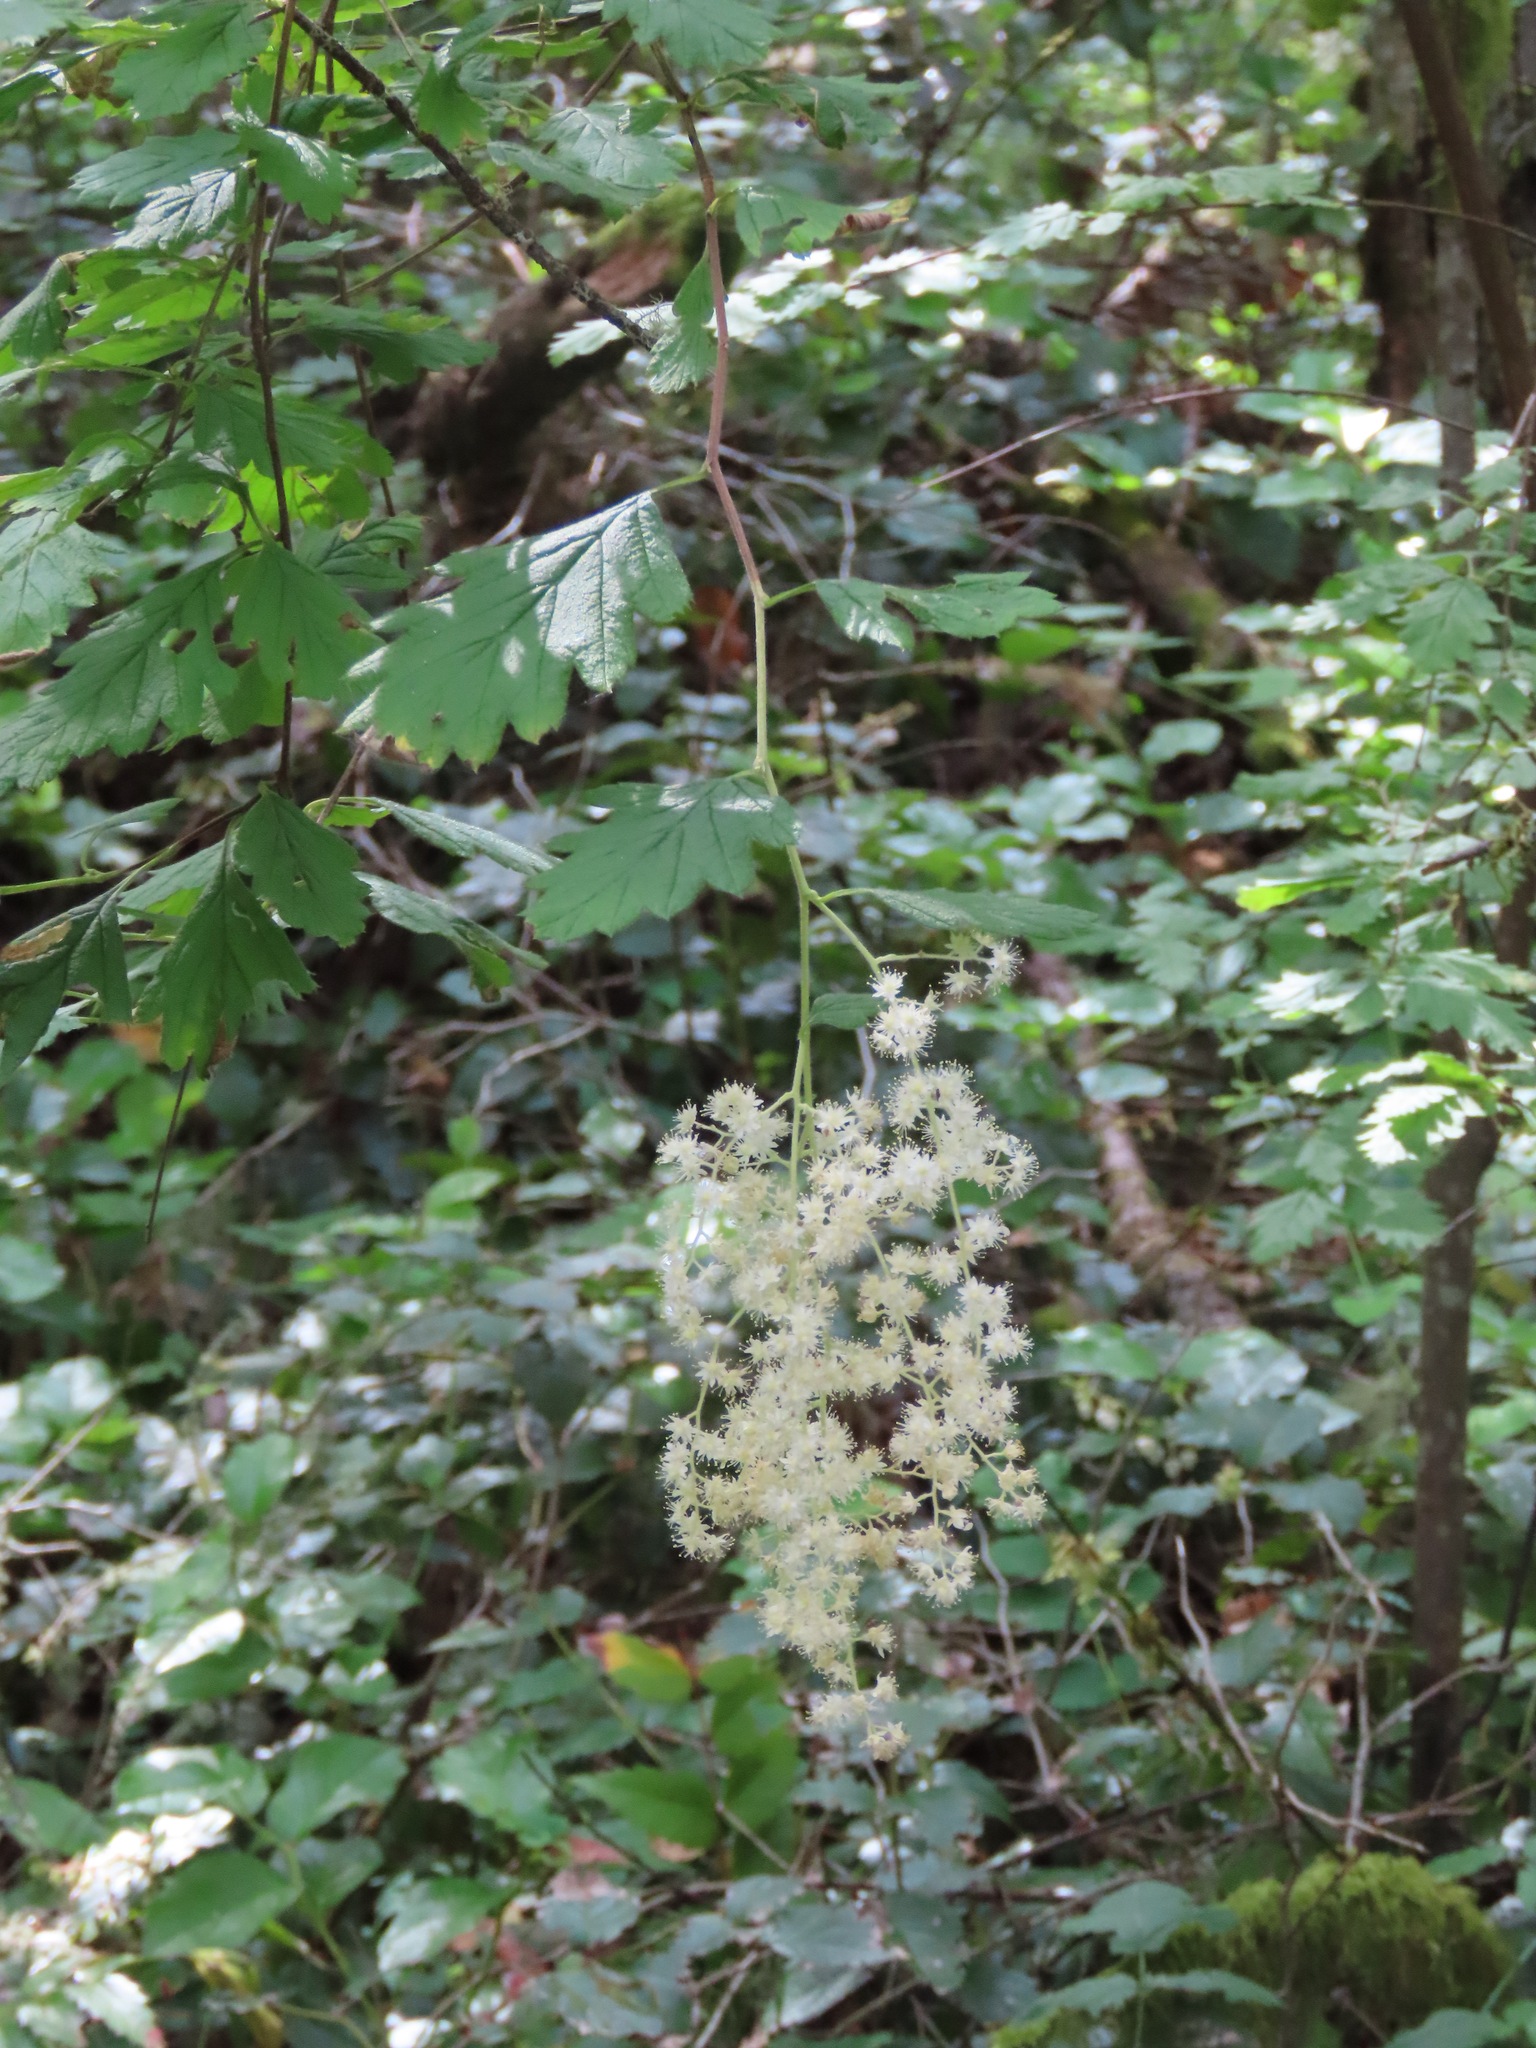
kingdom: Plantae
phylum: Tracheophyta
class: Magnoliopsida
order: Rosales
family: Rosaceae
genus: Holodiscus
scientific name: Holodiscus discolor
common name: Oceanspray
